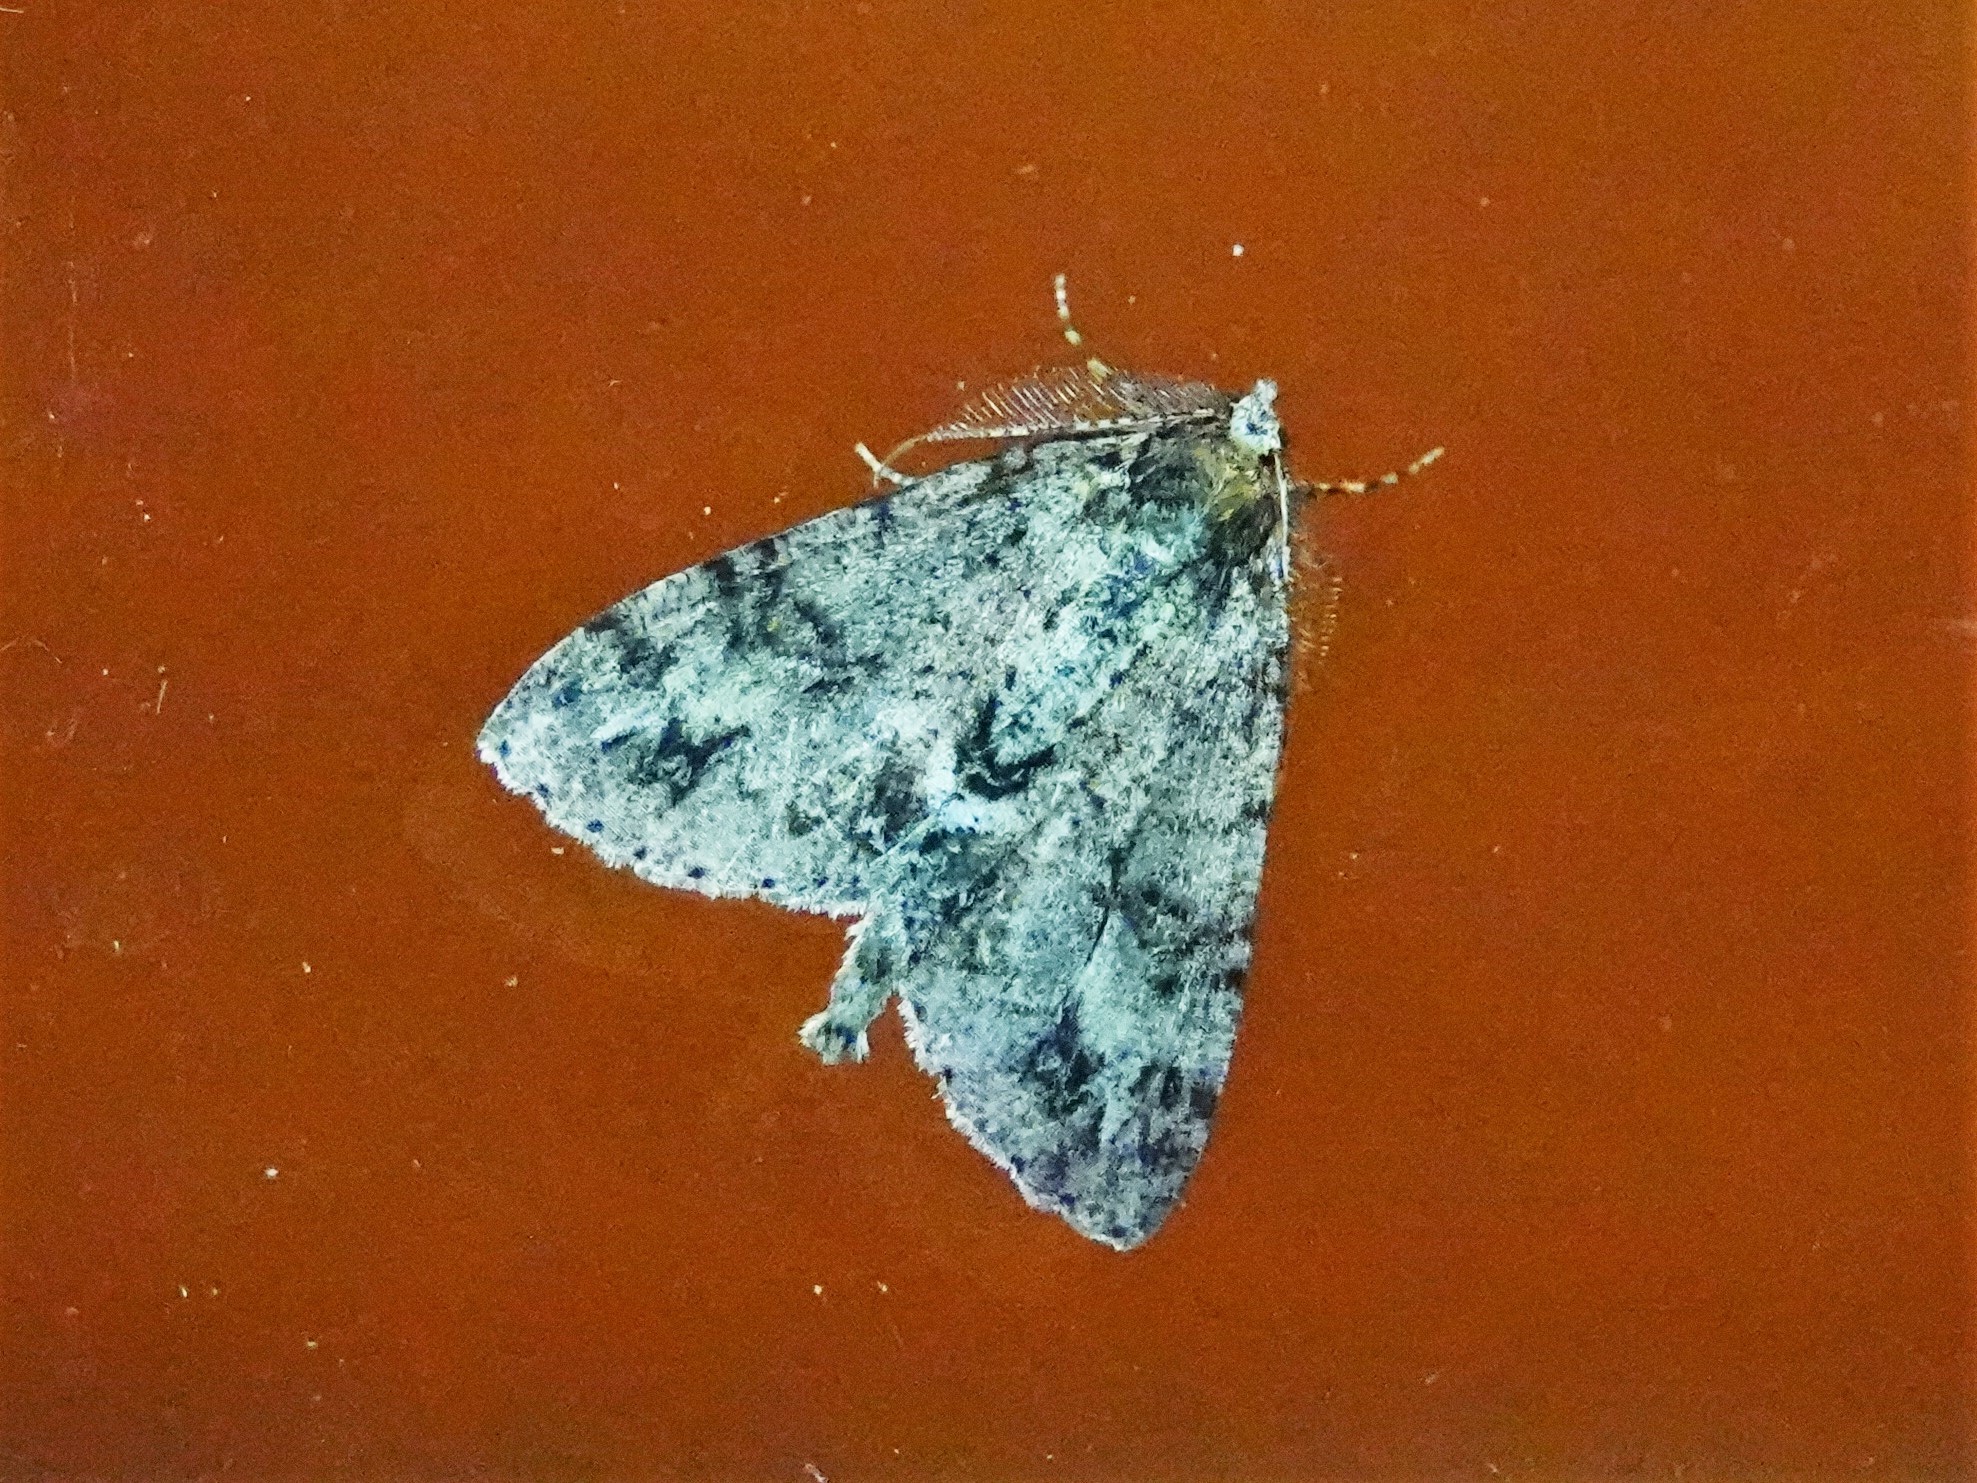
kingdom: Animalia
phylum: Arthropoda
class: Insecta
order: Lepidoptera
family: Geometridae
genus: Pseudocoremia
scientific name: Pseudocoremia suavis
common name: Common forest looper
